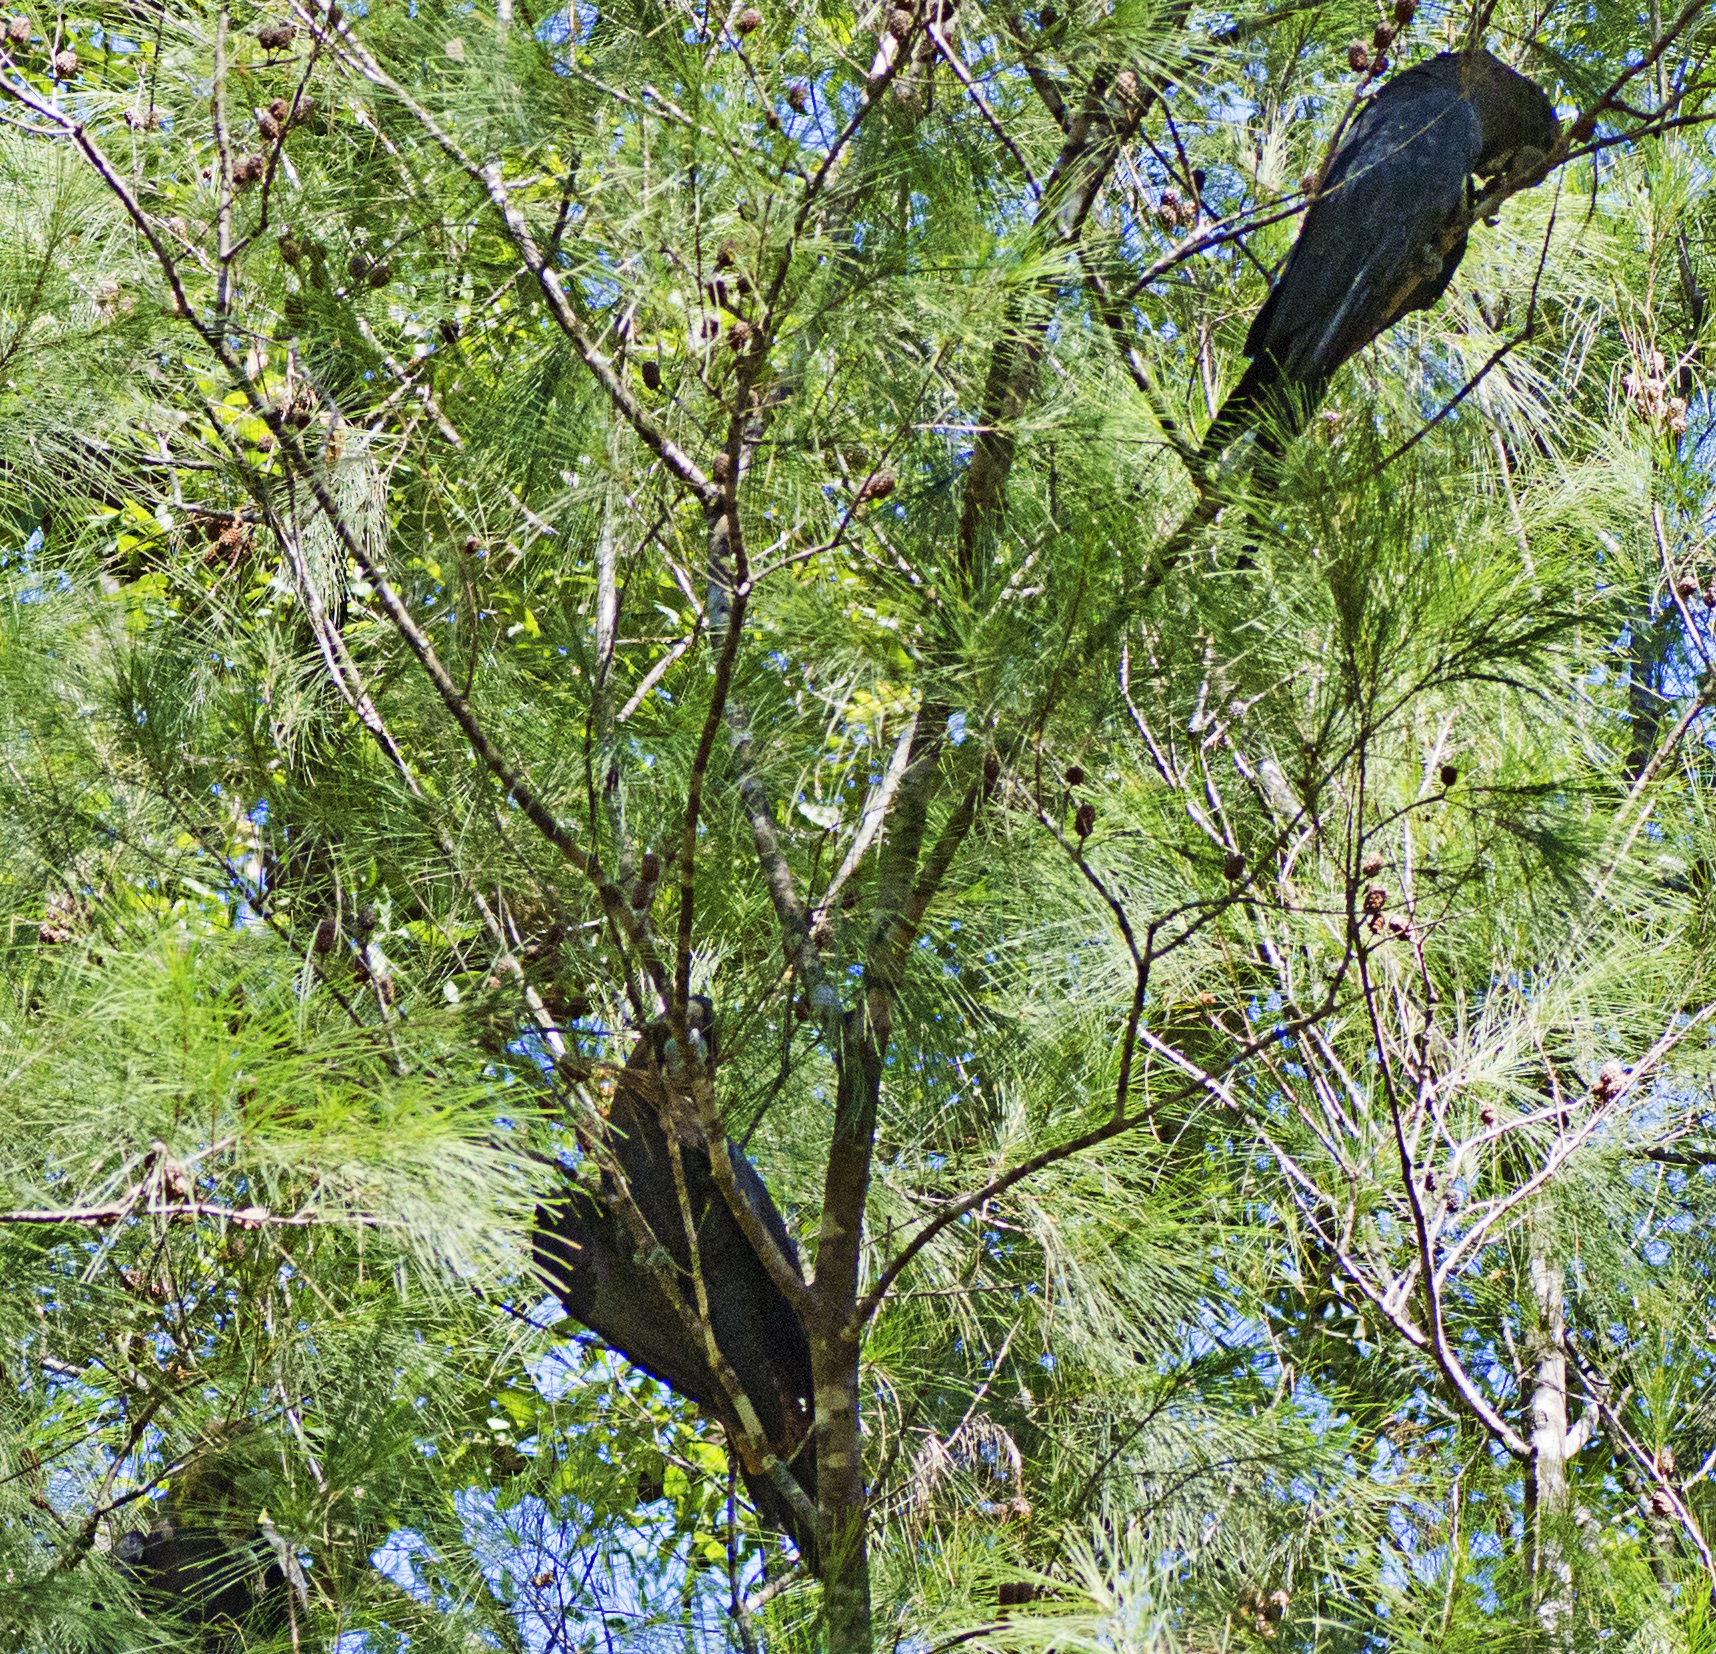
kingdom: Animalia
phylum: Chordata
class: Aves
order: Psittaciformes
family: Psittacidae
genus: Calyptorhynchus
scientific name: Calyptorhynchus lathami
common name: Glossy black cockatoo
